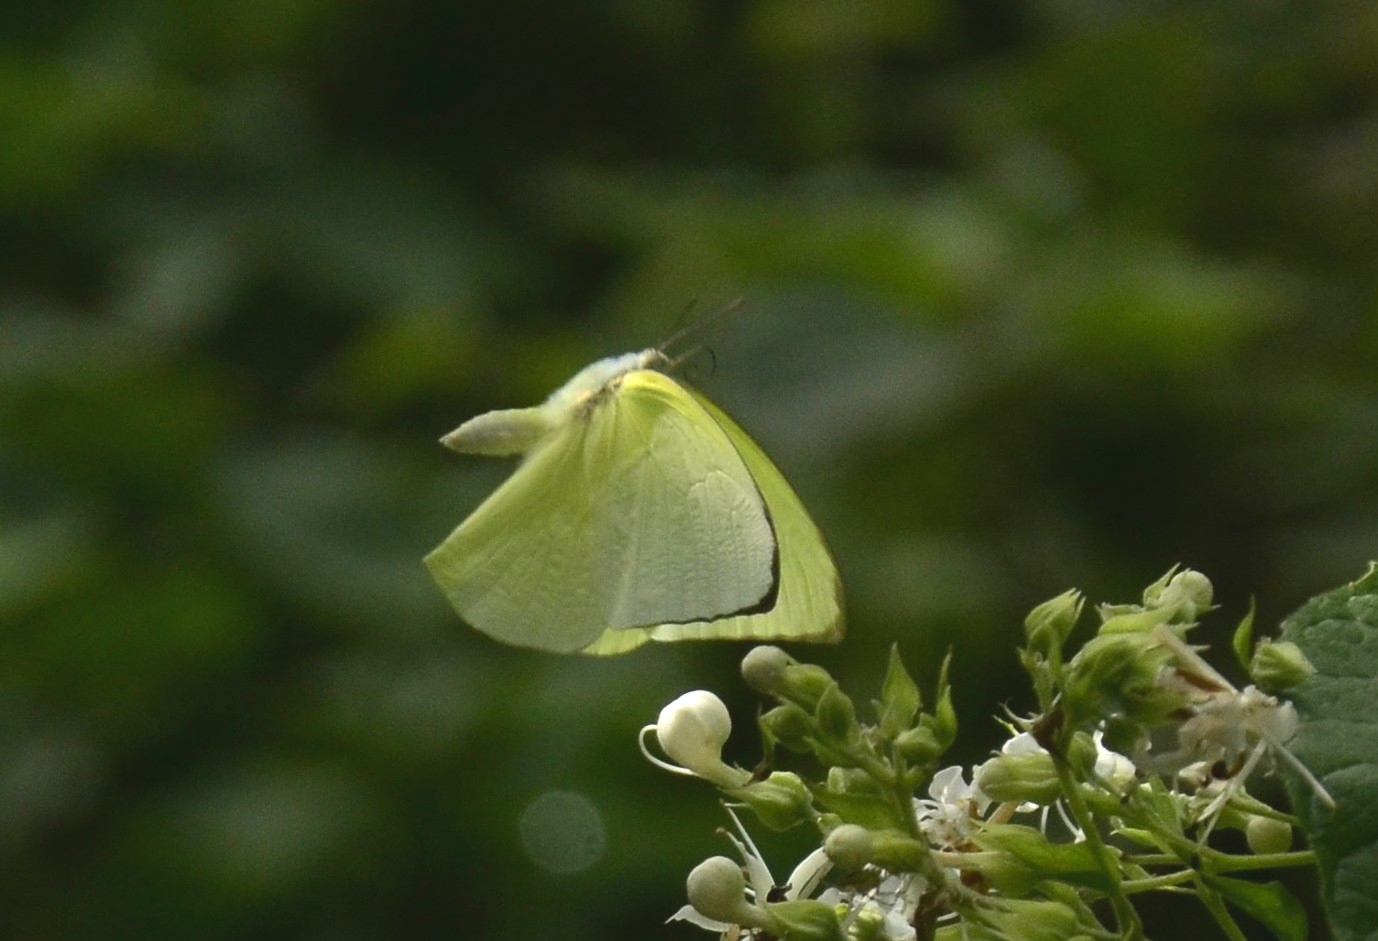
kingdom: Animalia
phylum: Arthropoda
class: Insecta
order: Lepidoptera
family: Pieridae
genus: Catopsilia
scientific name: Catopsilia pomona
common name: Common emigrant
